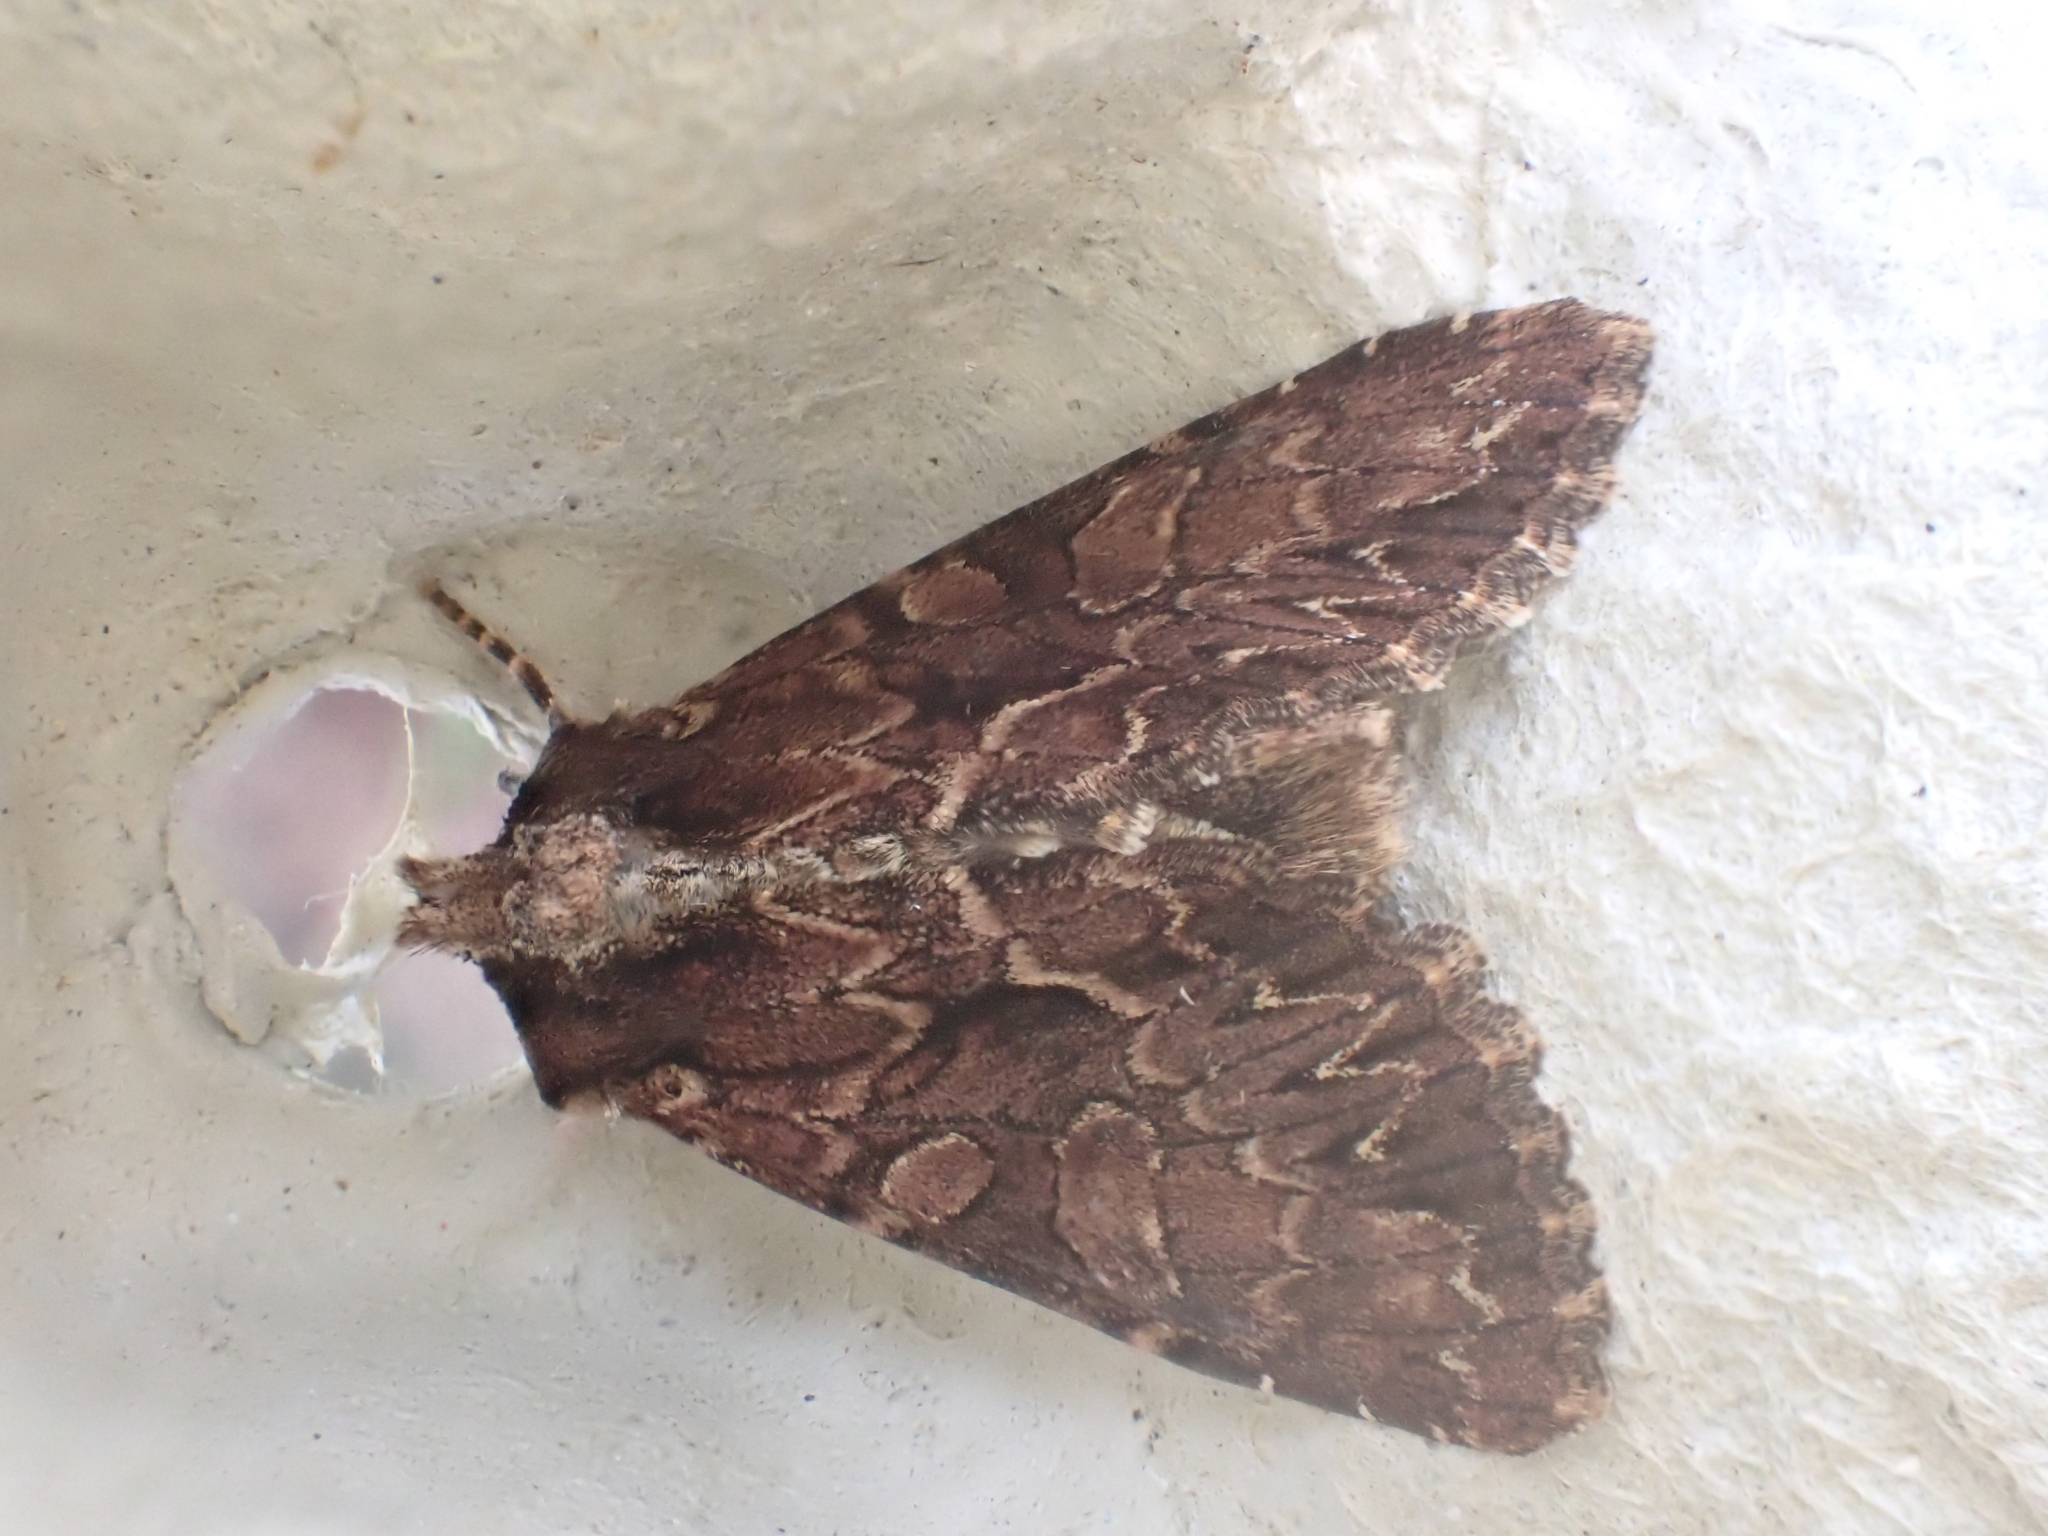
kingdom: Animalia
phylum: Arthropoda
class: Insecta
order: Lepidoptera
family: Noctuidae
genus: Apamea
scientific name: Apamea monoglypha
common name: Dark arches
